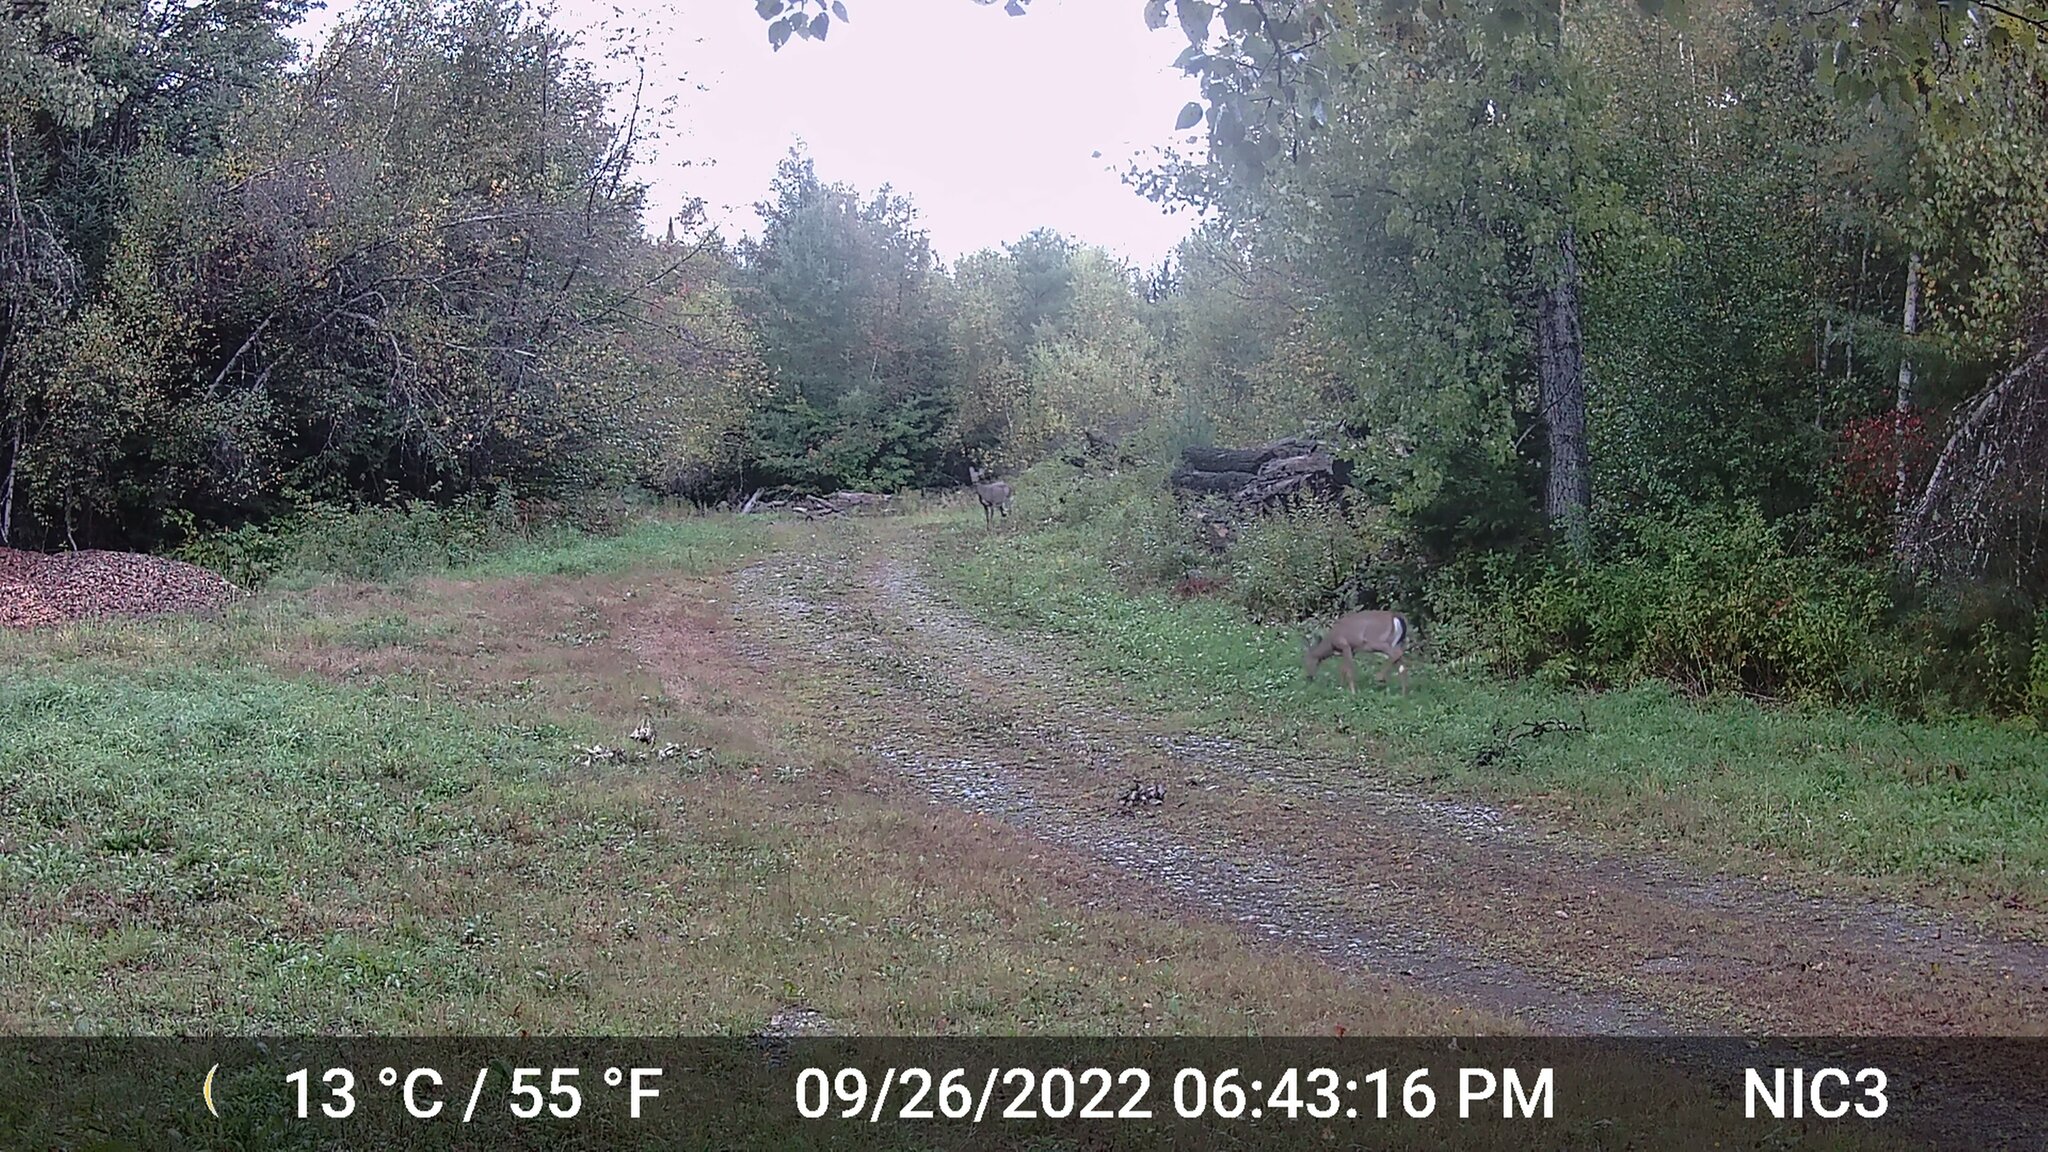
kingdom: Animalia
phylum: Chordata
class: Mammalia
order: Artiodactyla
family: Cervidae
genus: Odocoileus
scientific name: Odocoileus virginianus
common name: White-tailed deer
